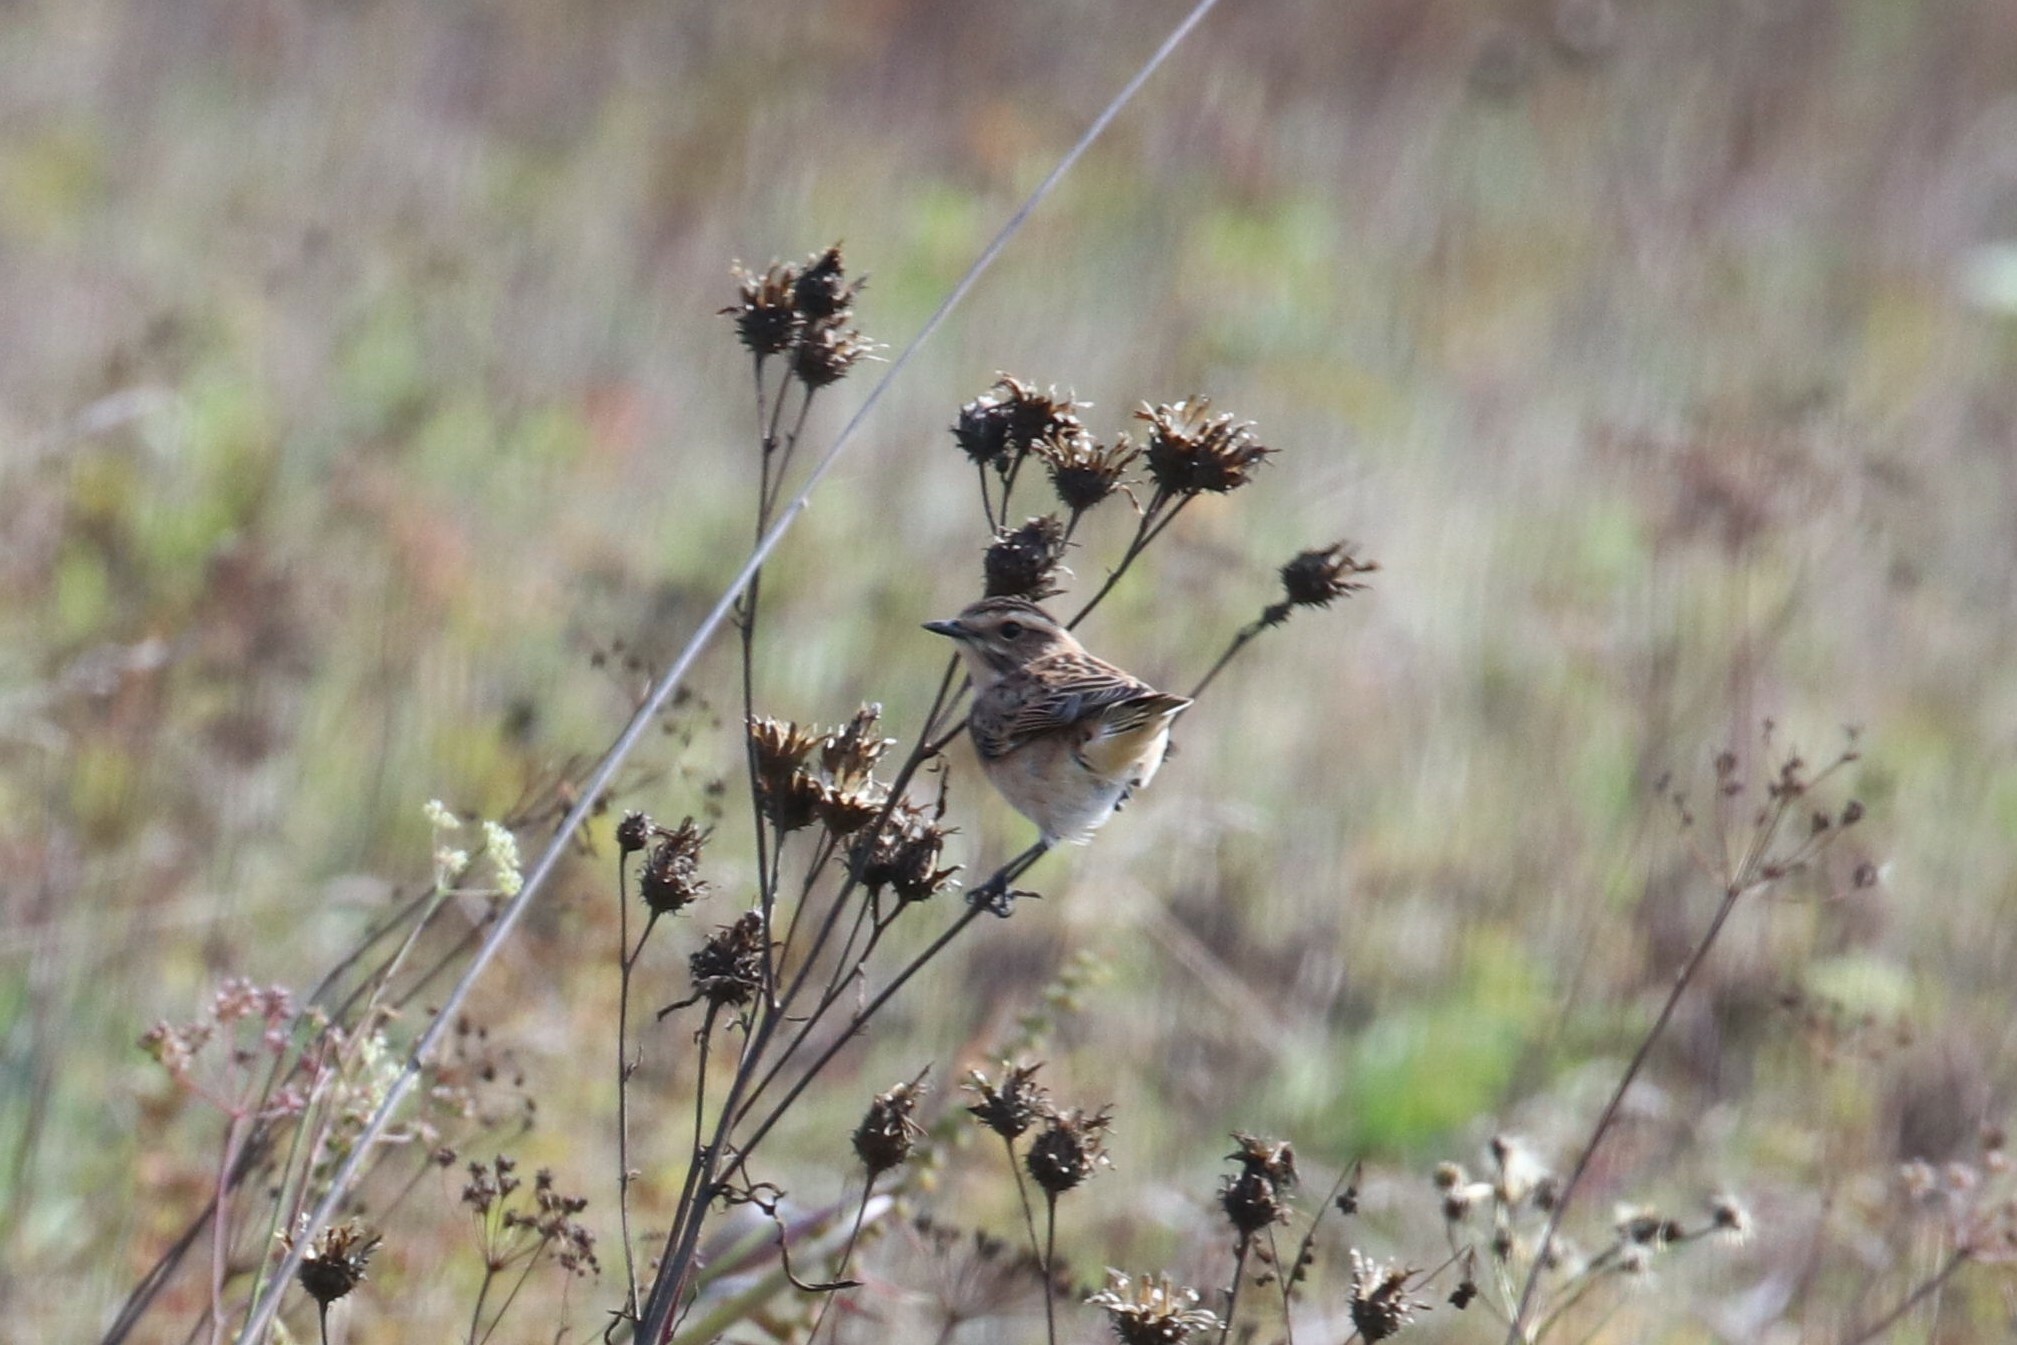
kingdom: Animalia
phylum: Chordata
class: Aves
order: Passeriformes
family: Muscicapidae
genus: Saxicola
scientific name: Saxicola rubetra
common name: Whinchat
